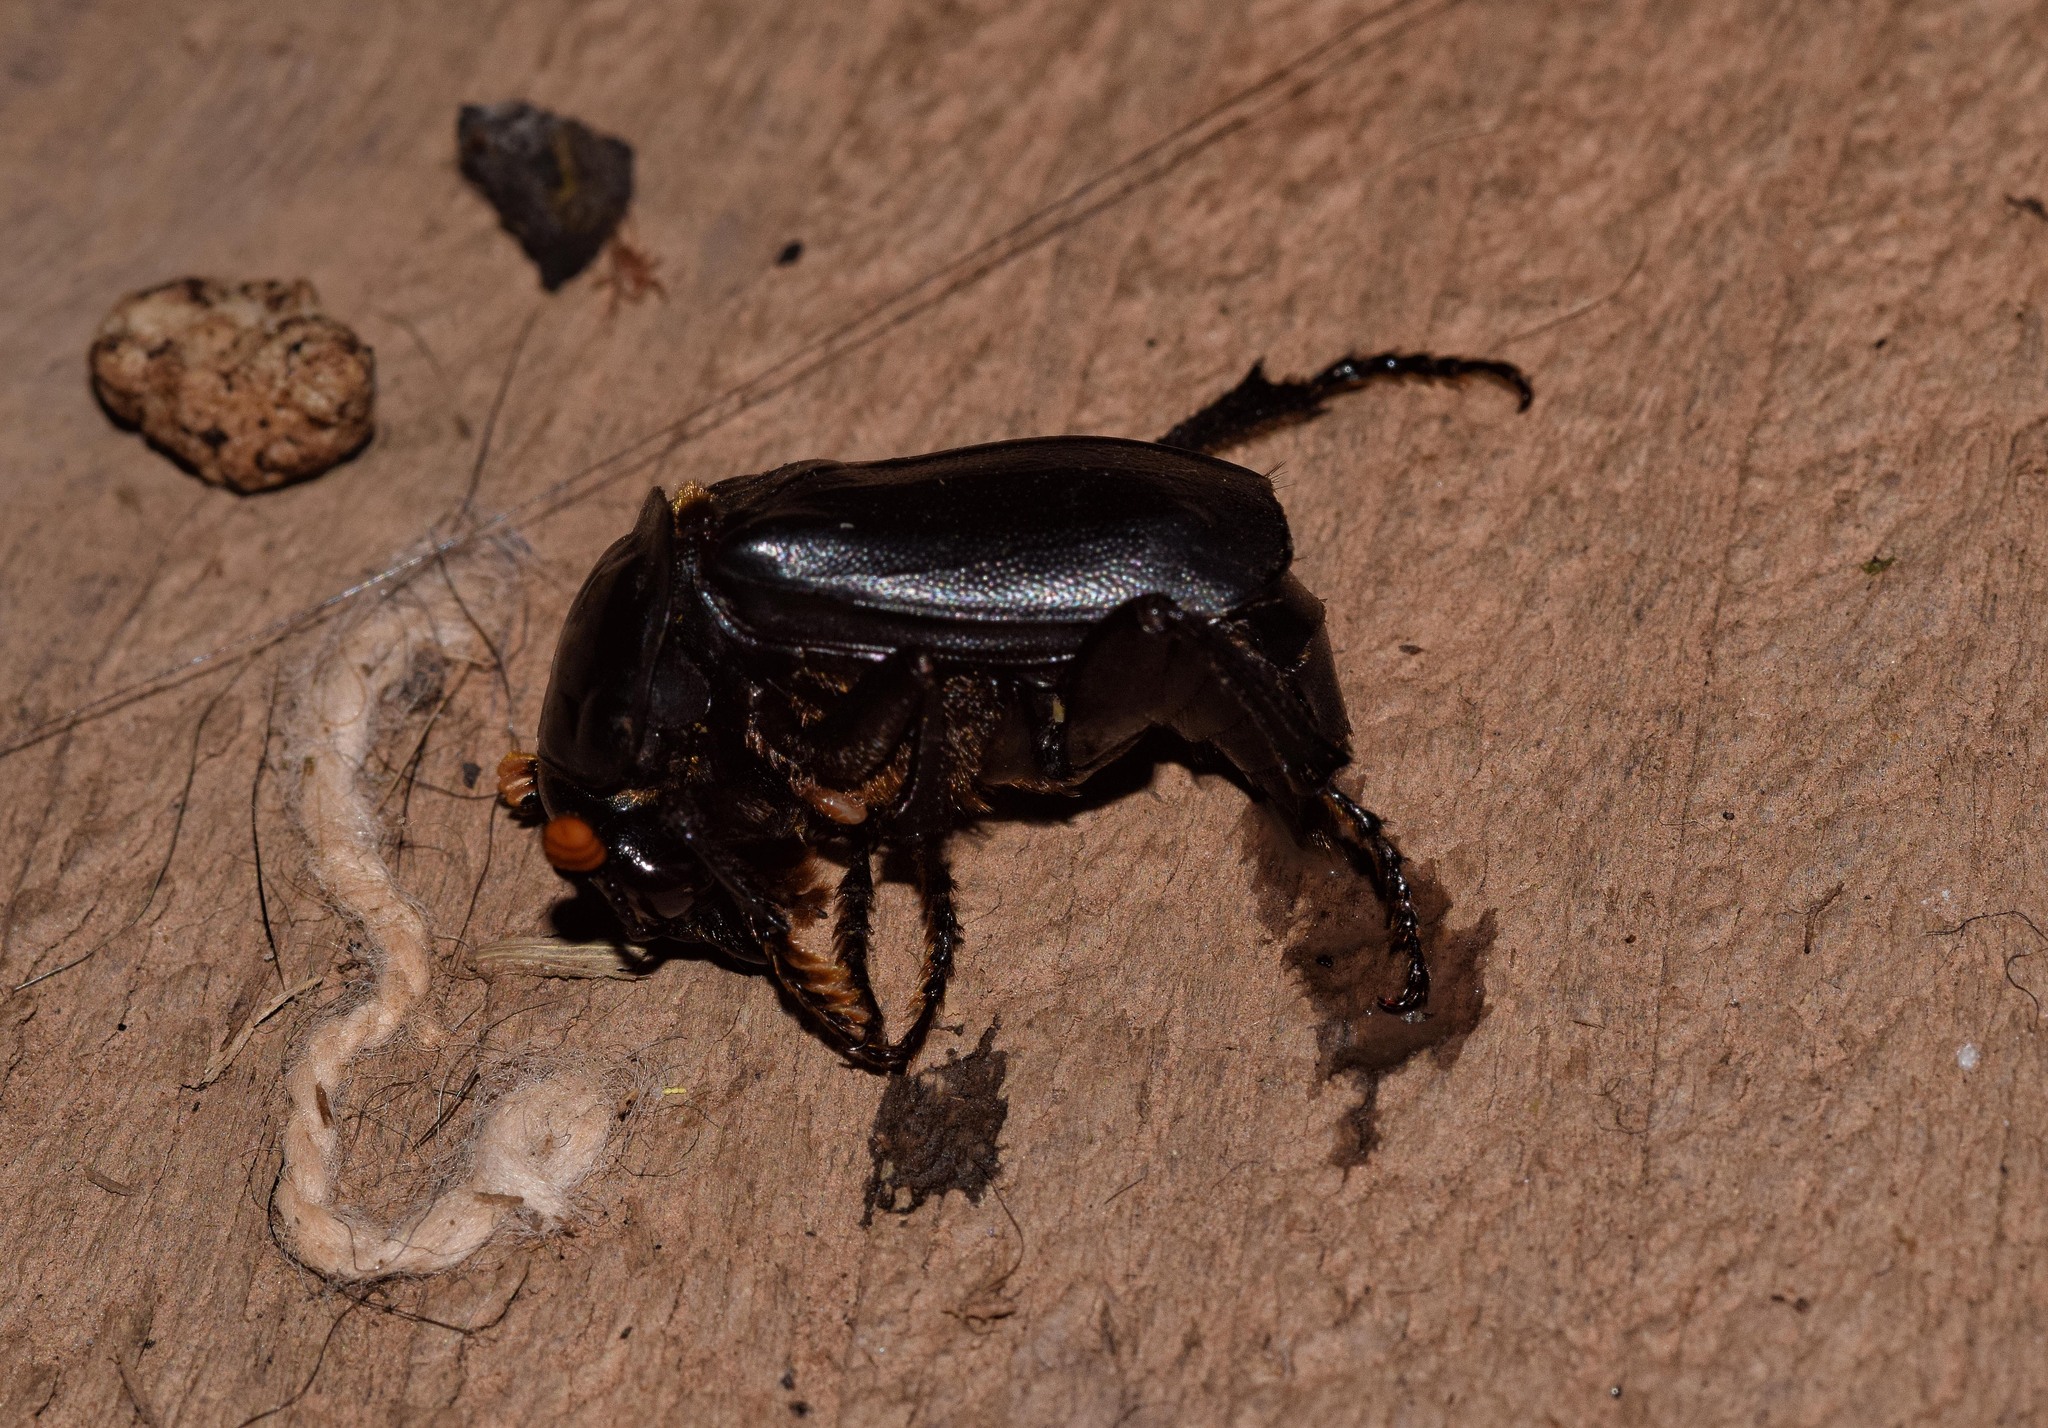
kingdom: Animalia
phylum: Arthropoda
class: Insecta
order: Coleoptera
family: Staphylinidae
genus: Nicrophorus
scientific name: Nicrophorus humator
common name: Black sexton beetle
